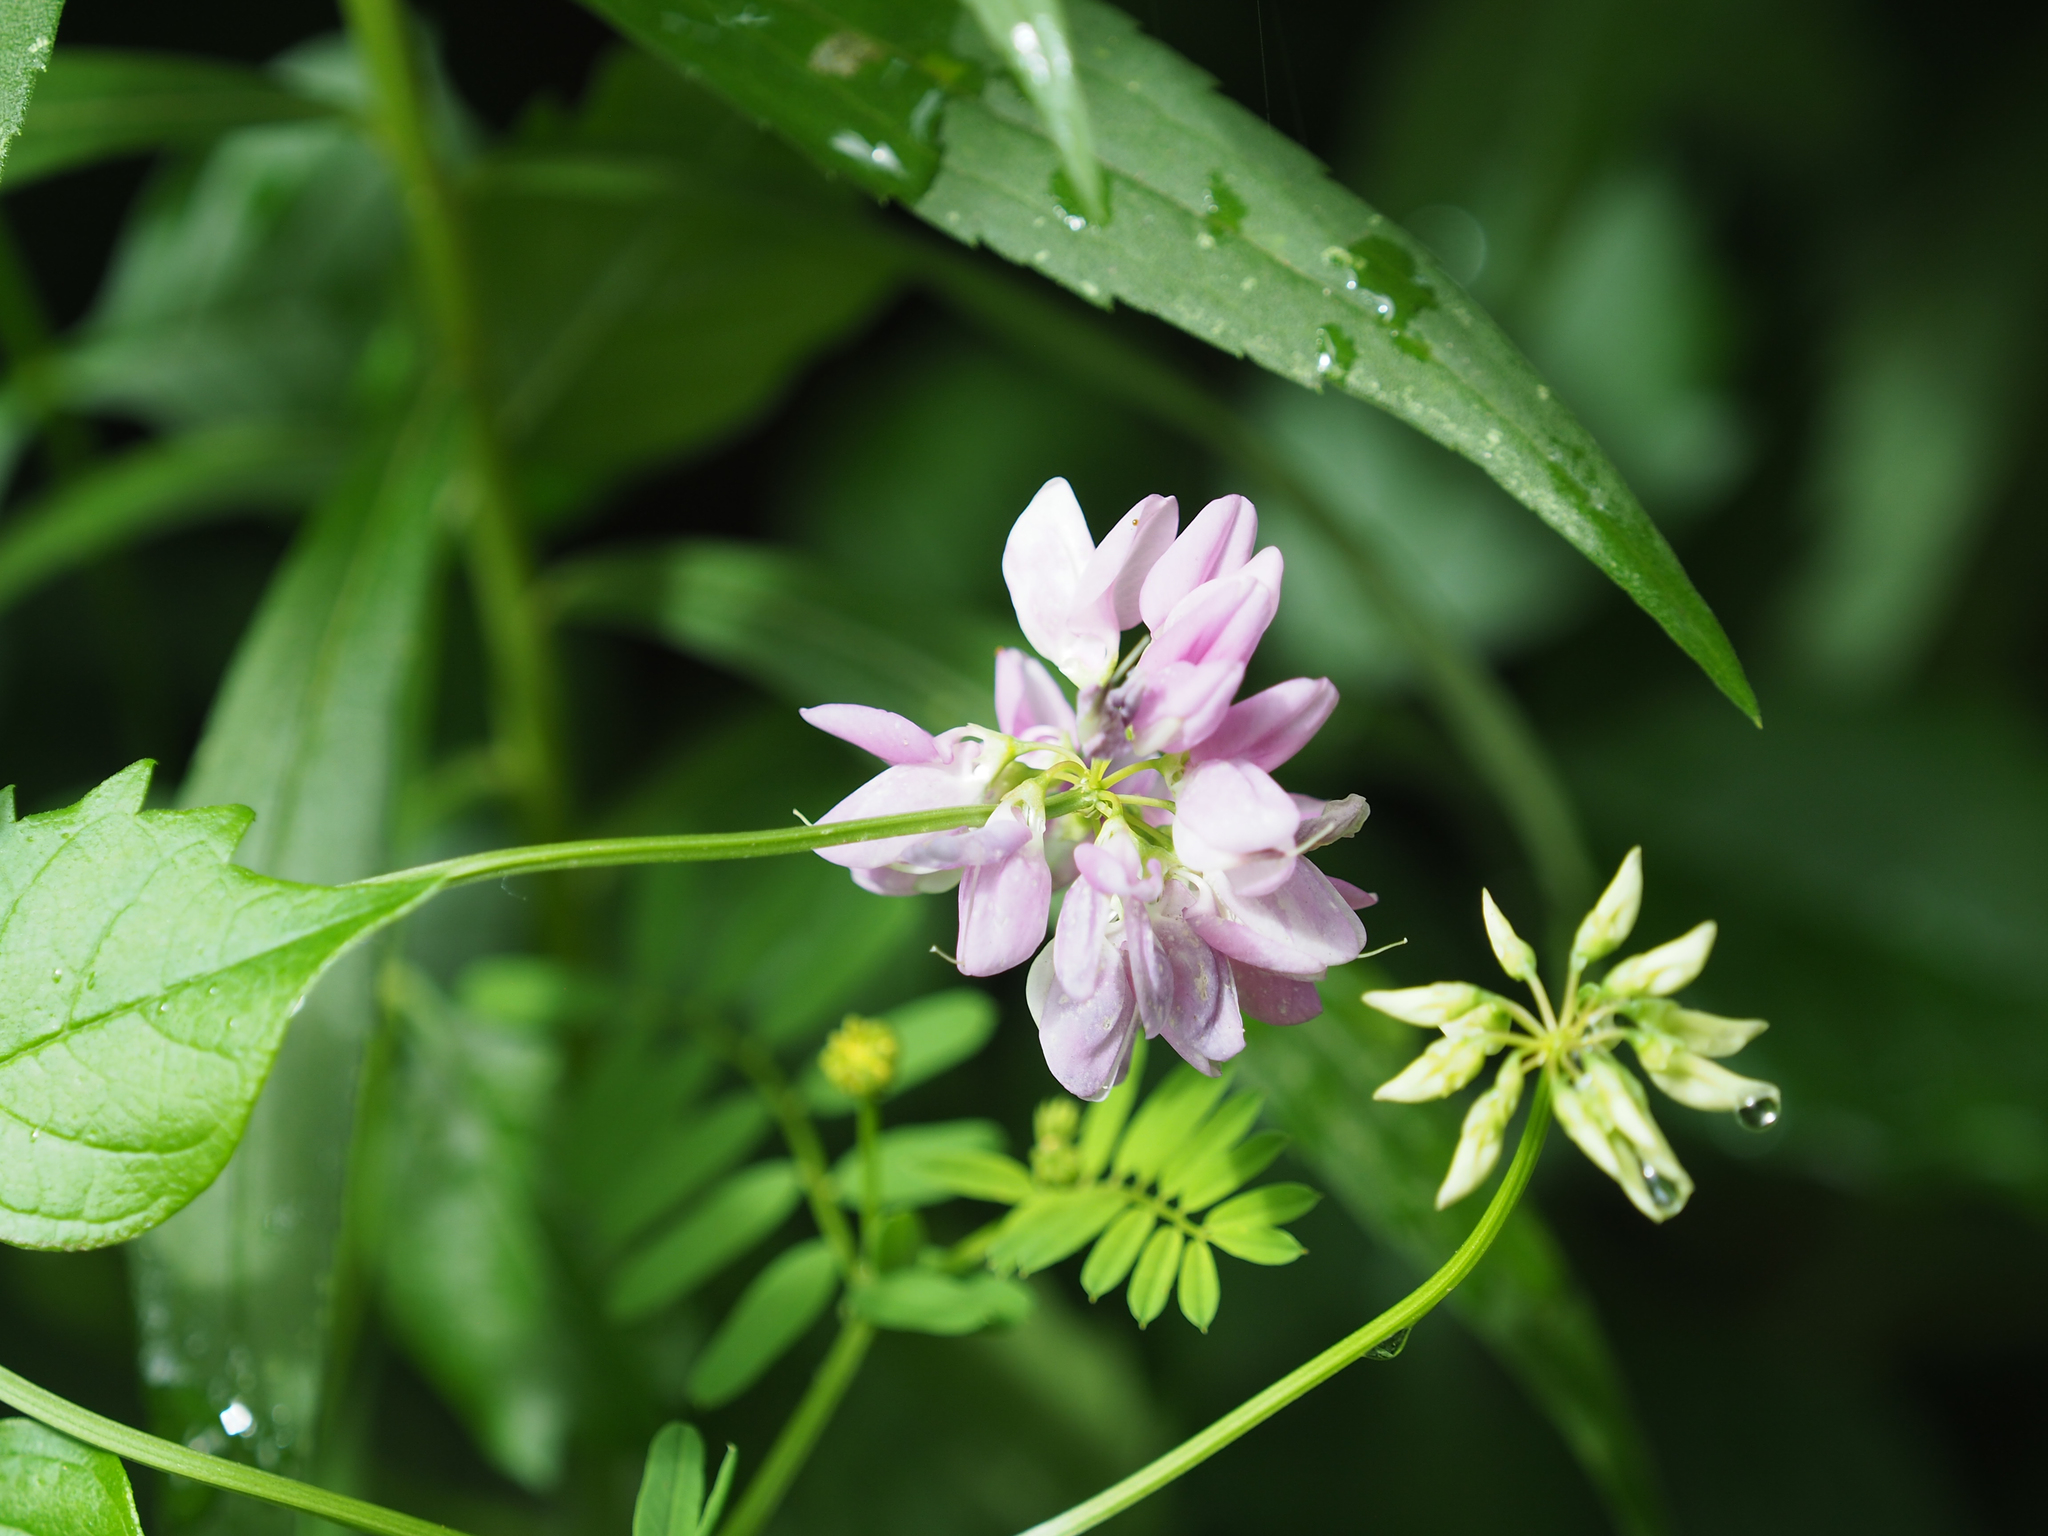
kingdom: Plantae
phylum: Tracheophyta
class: Magnoliopsida
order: Fabales
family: Fabaceae
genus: Coronilla
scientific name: Coronilla varia
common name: Crownvetch
